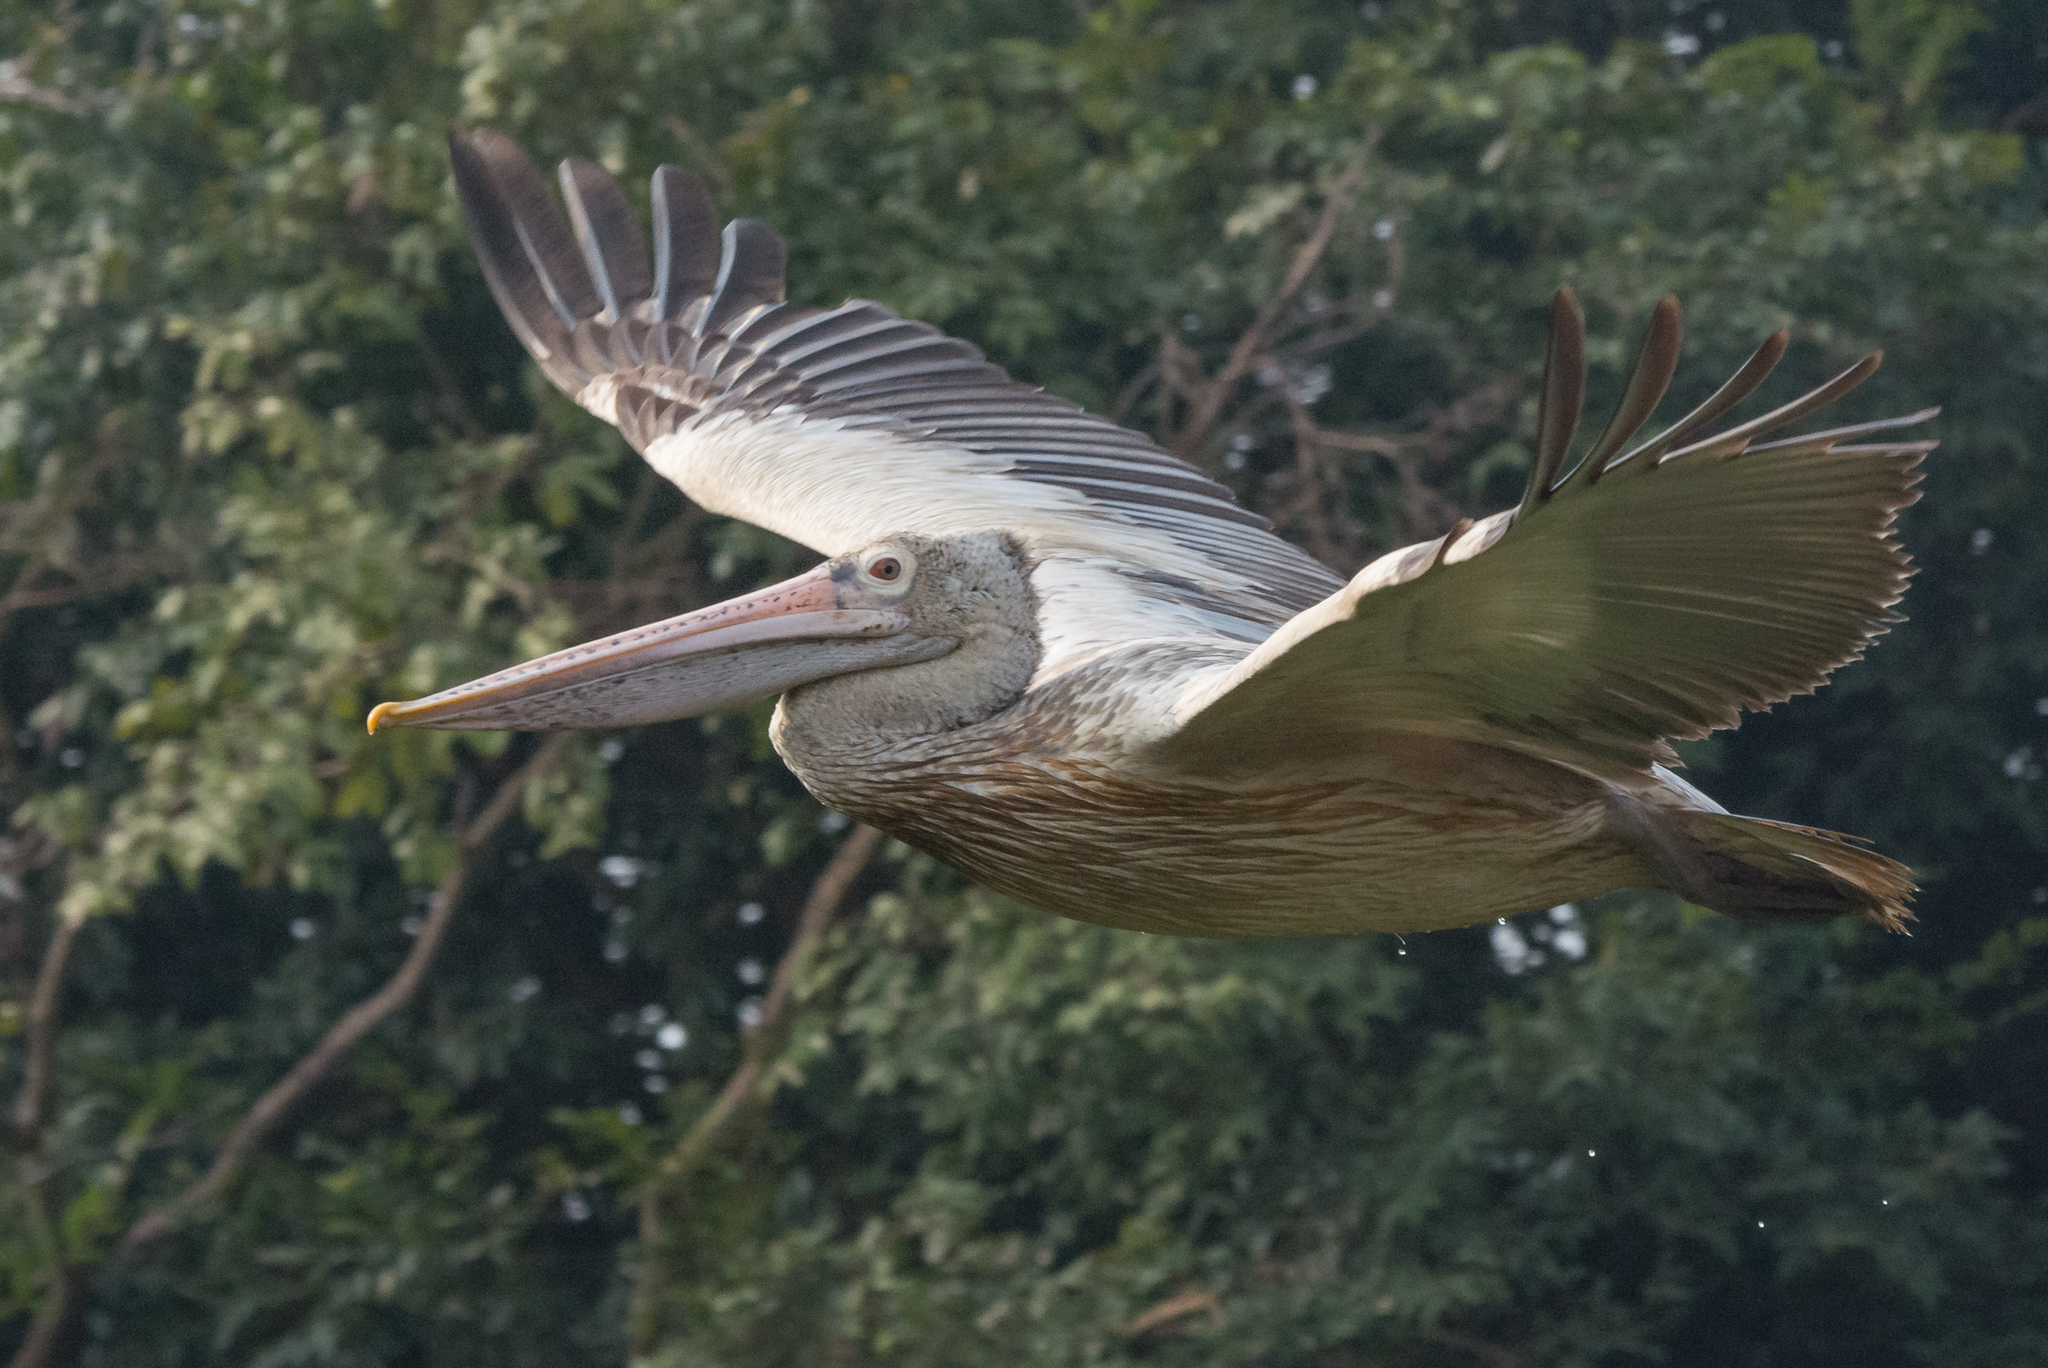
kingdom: Animalia
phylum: Chordata
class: Aves
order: Pelecaniformes
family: Pelecanidae
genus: Pelecanus
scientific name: Pelecanus philippensis
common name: Spot-billed pelican
